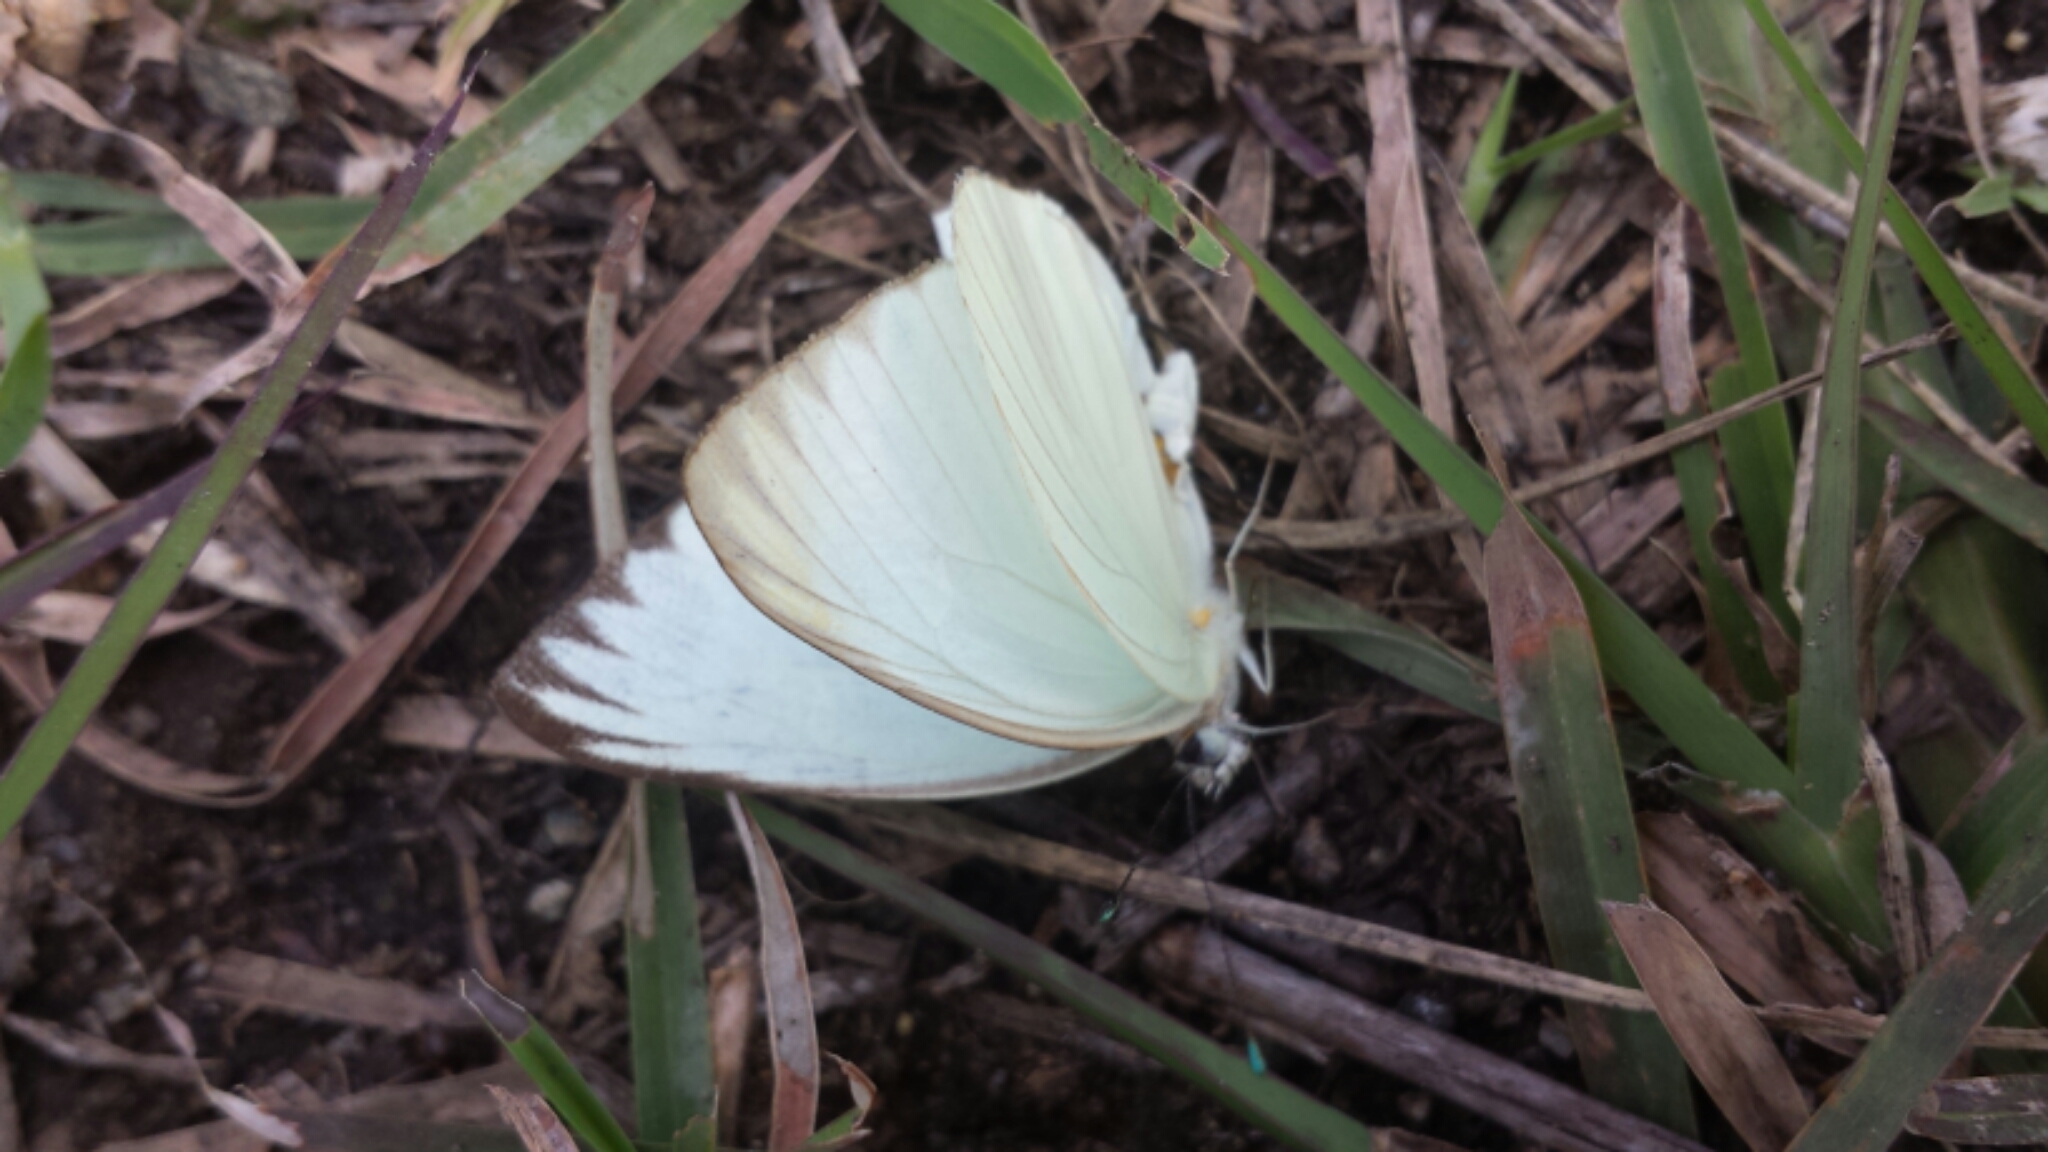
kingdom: Animalia
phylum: Arthropoda
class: Insecta
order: Lepidoptera
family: Pieridae
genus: Ascia
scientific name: Ascia monuste
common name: Great southern white
